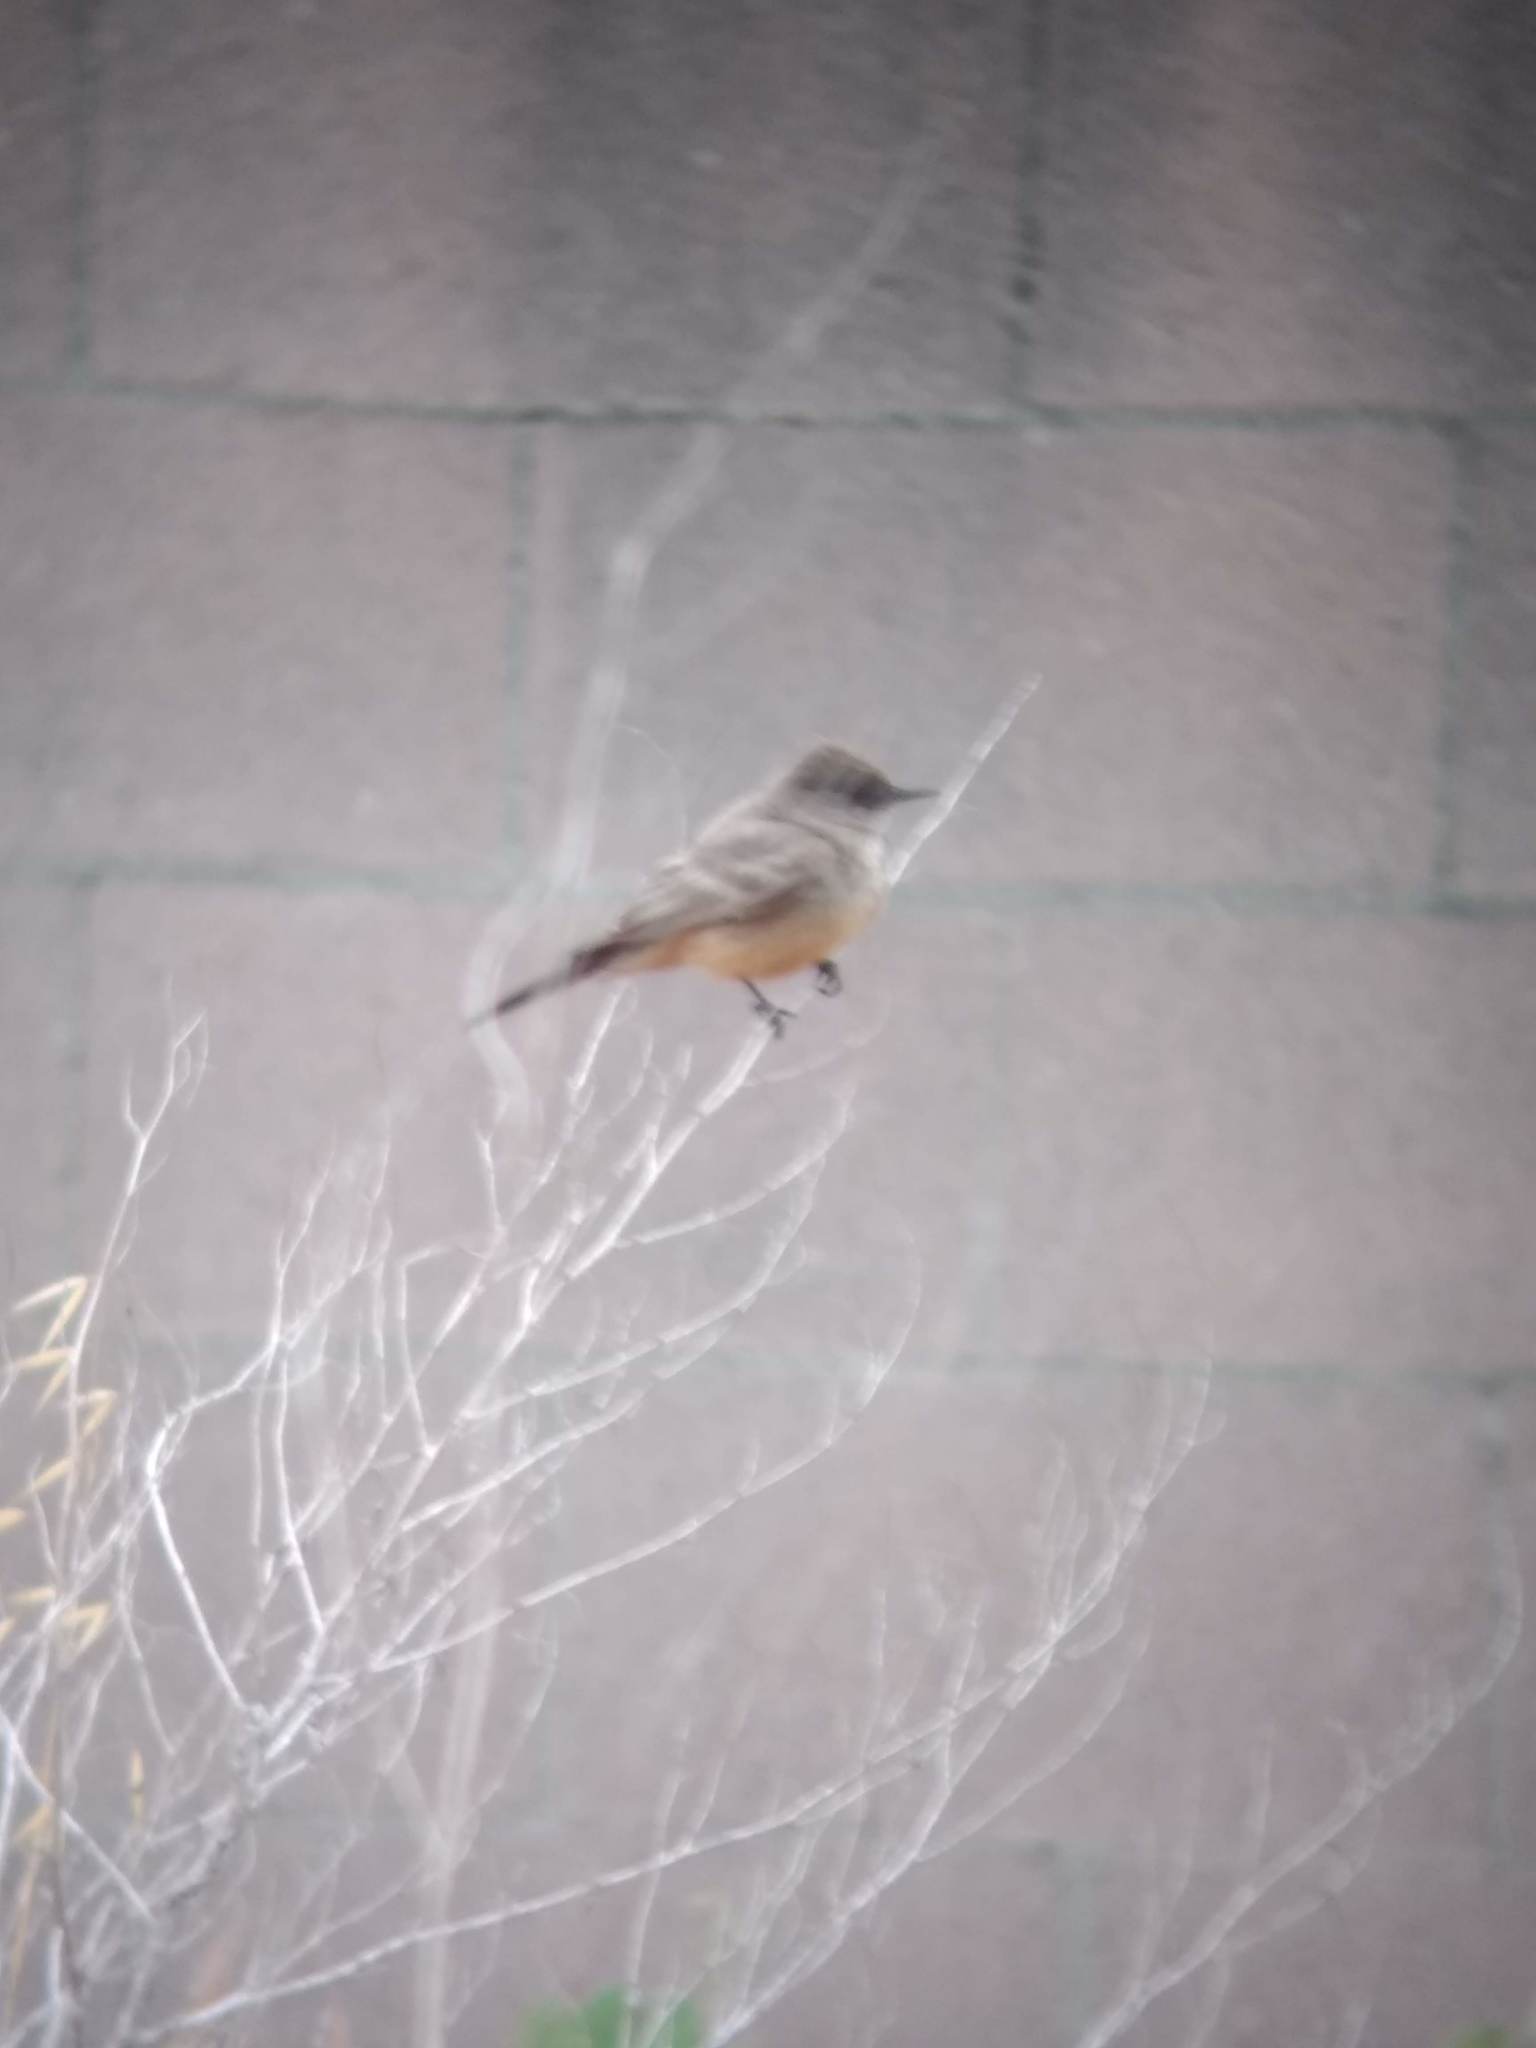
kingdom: Animalia
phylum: Chordata
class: Aves
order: Passeriformes
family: Tyrannidae
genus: Sayornis
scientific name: Sayornis saya
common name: Say's phoebe
